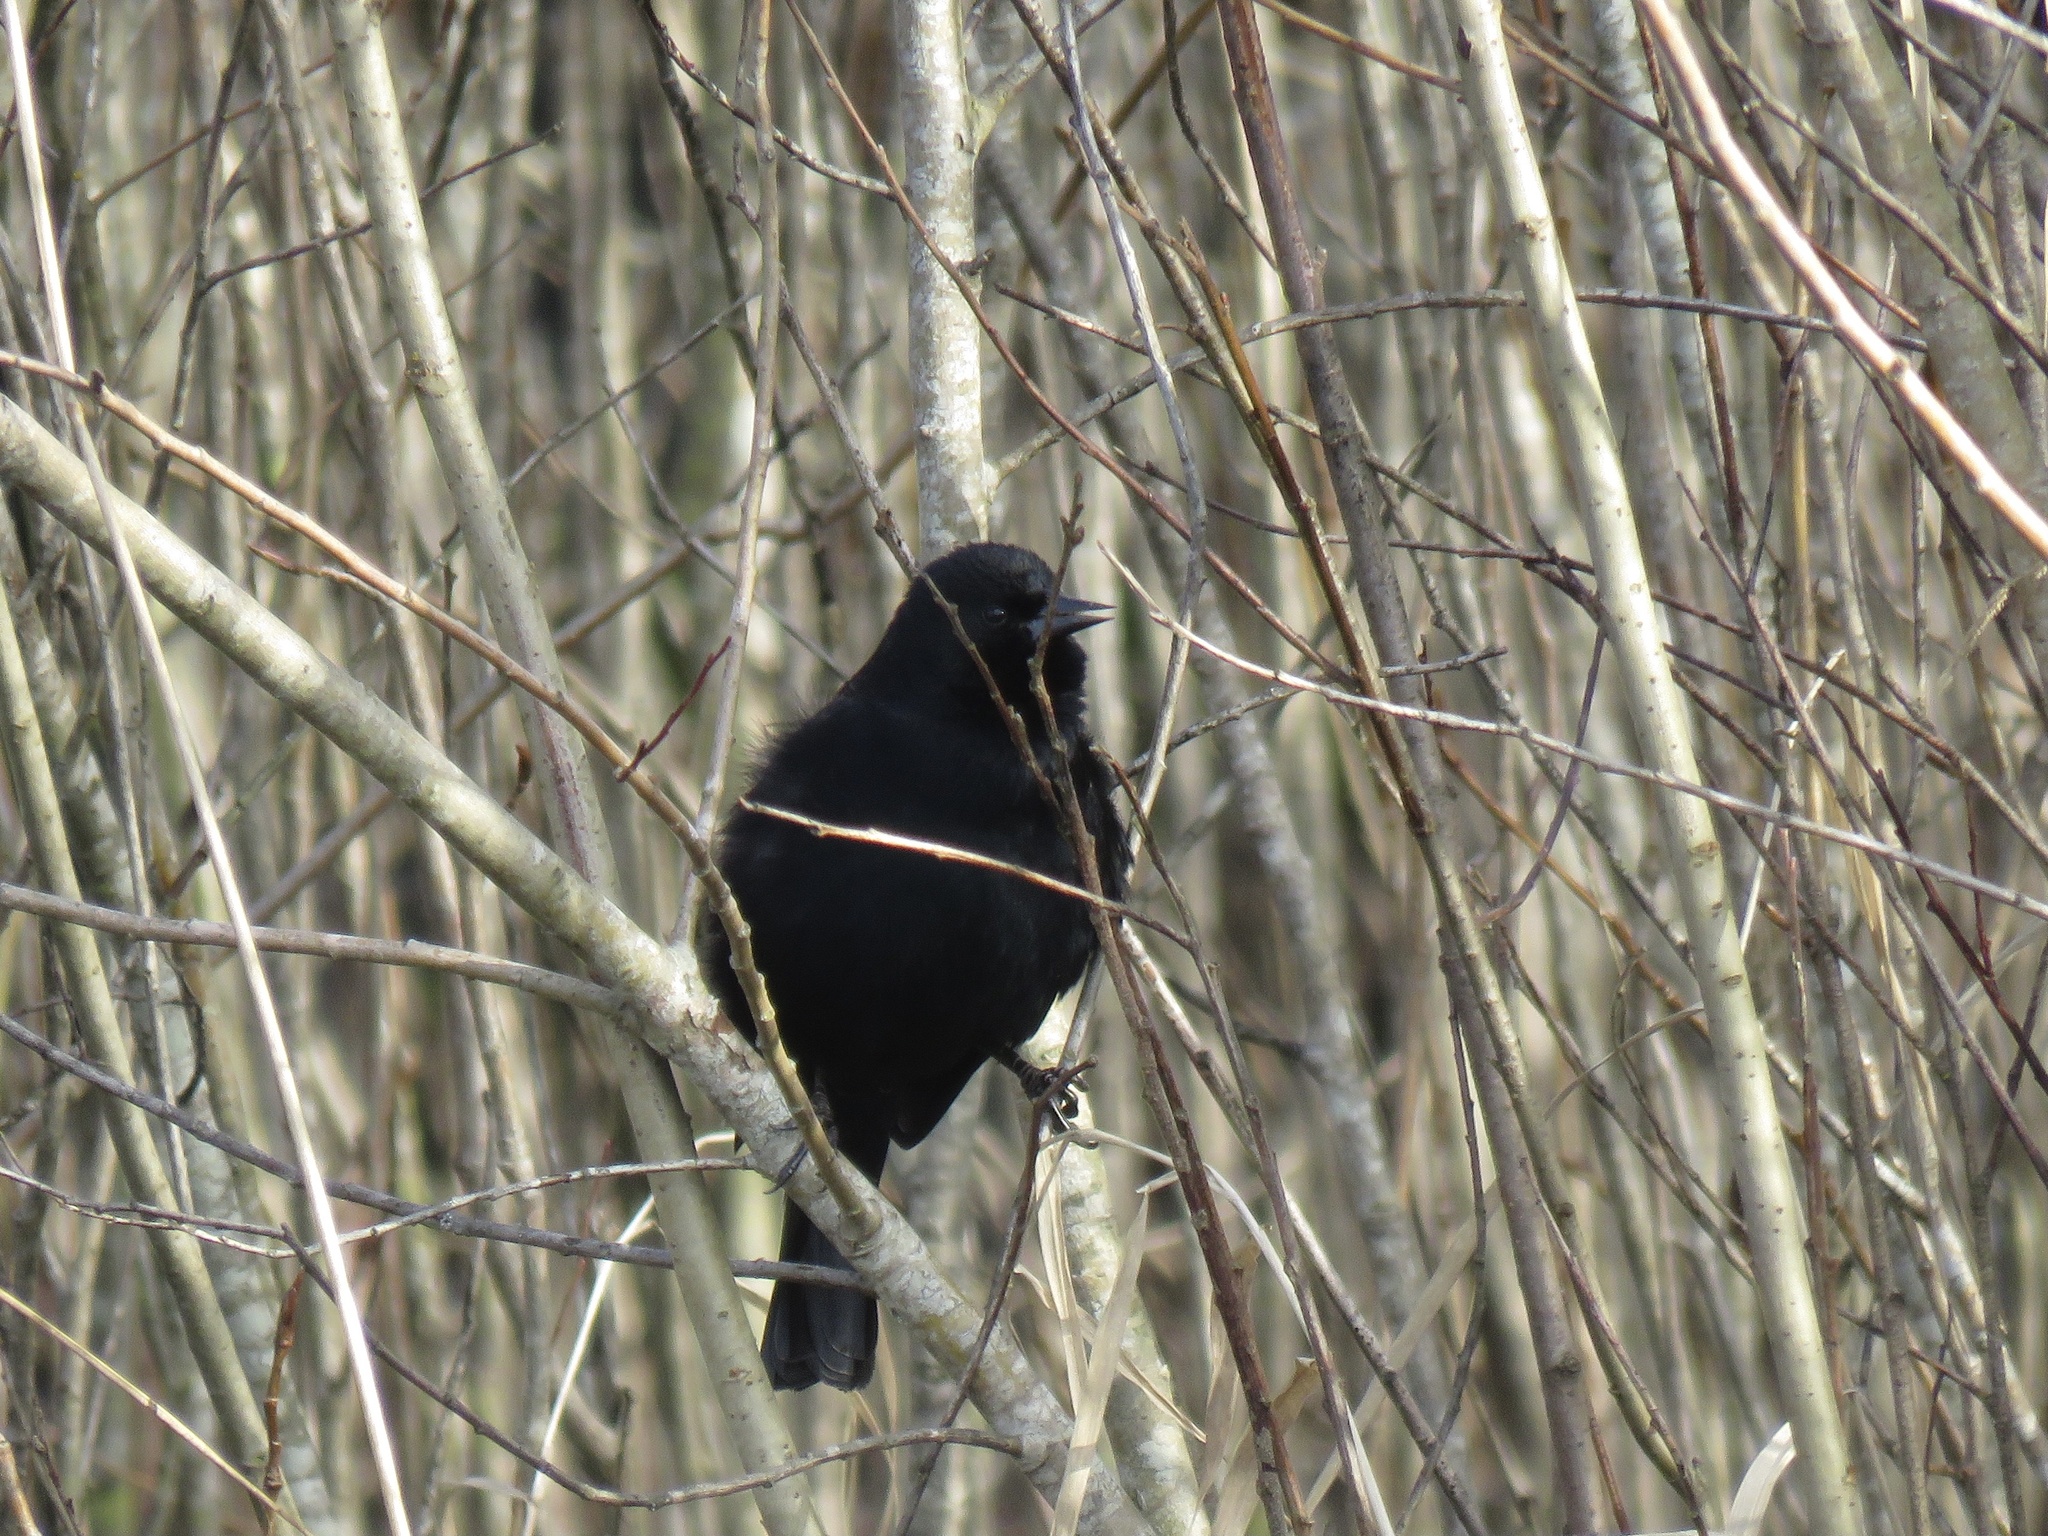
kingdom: Animalia
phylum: Chordata
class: Aves
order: Passeriformes
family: Icteridae
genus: Agelaius
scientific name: Agelaius phoeniceus
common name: Red-winged blackbird
